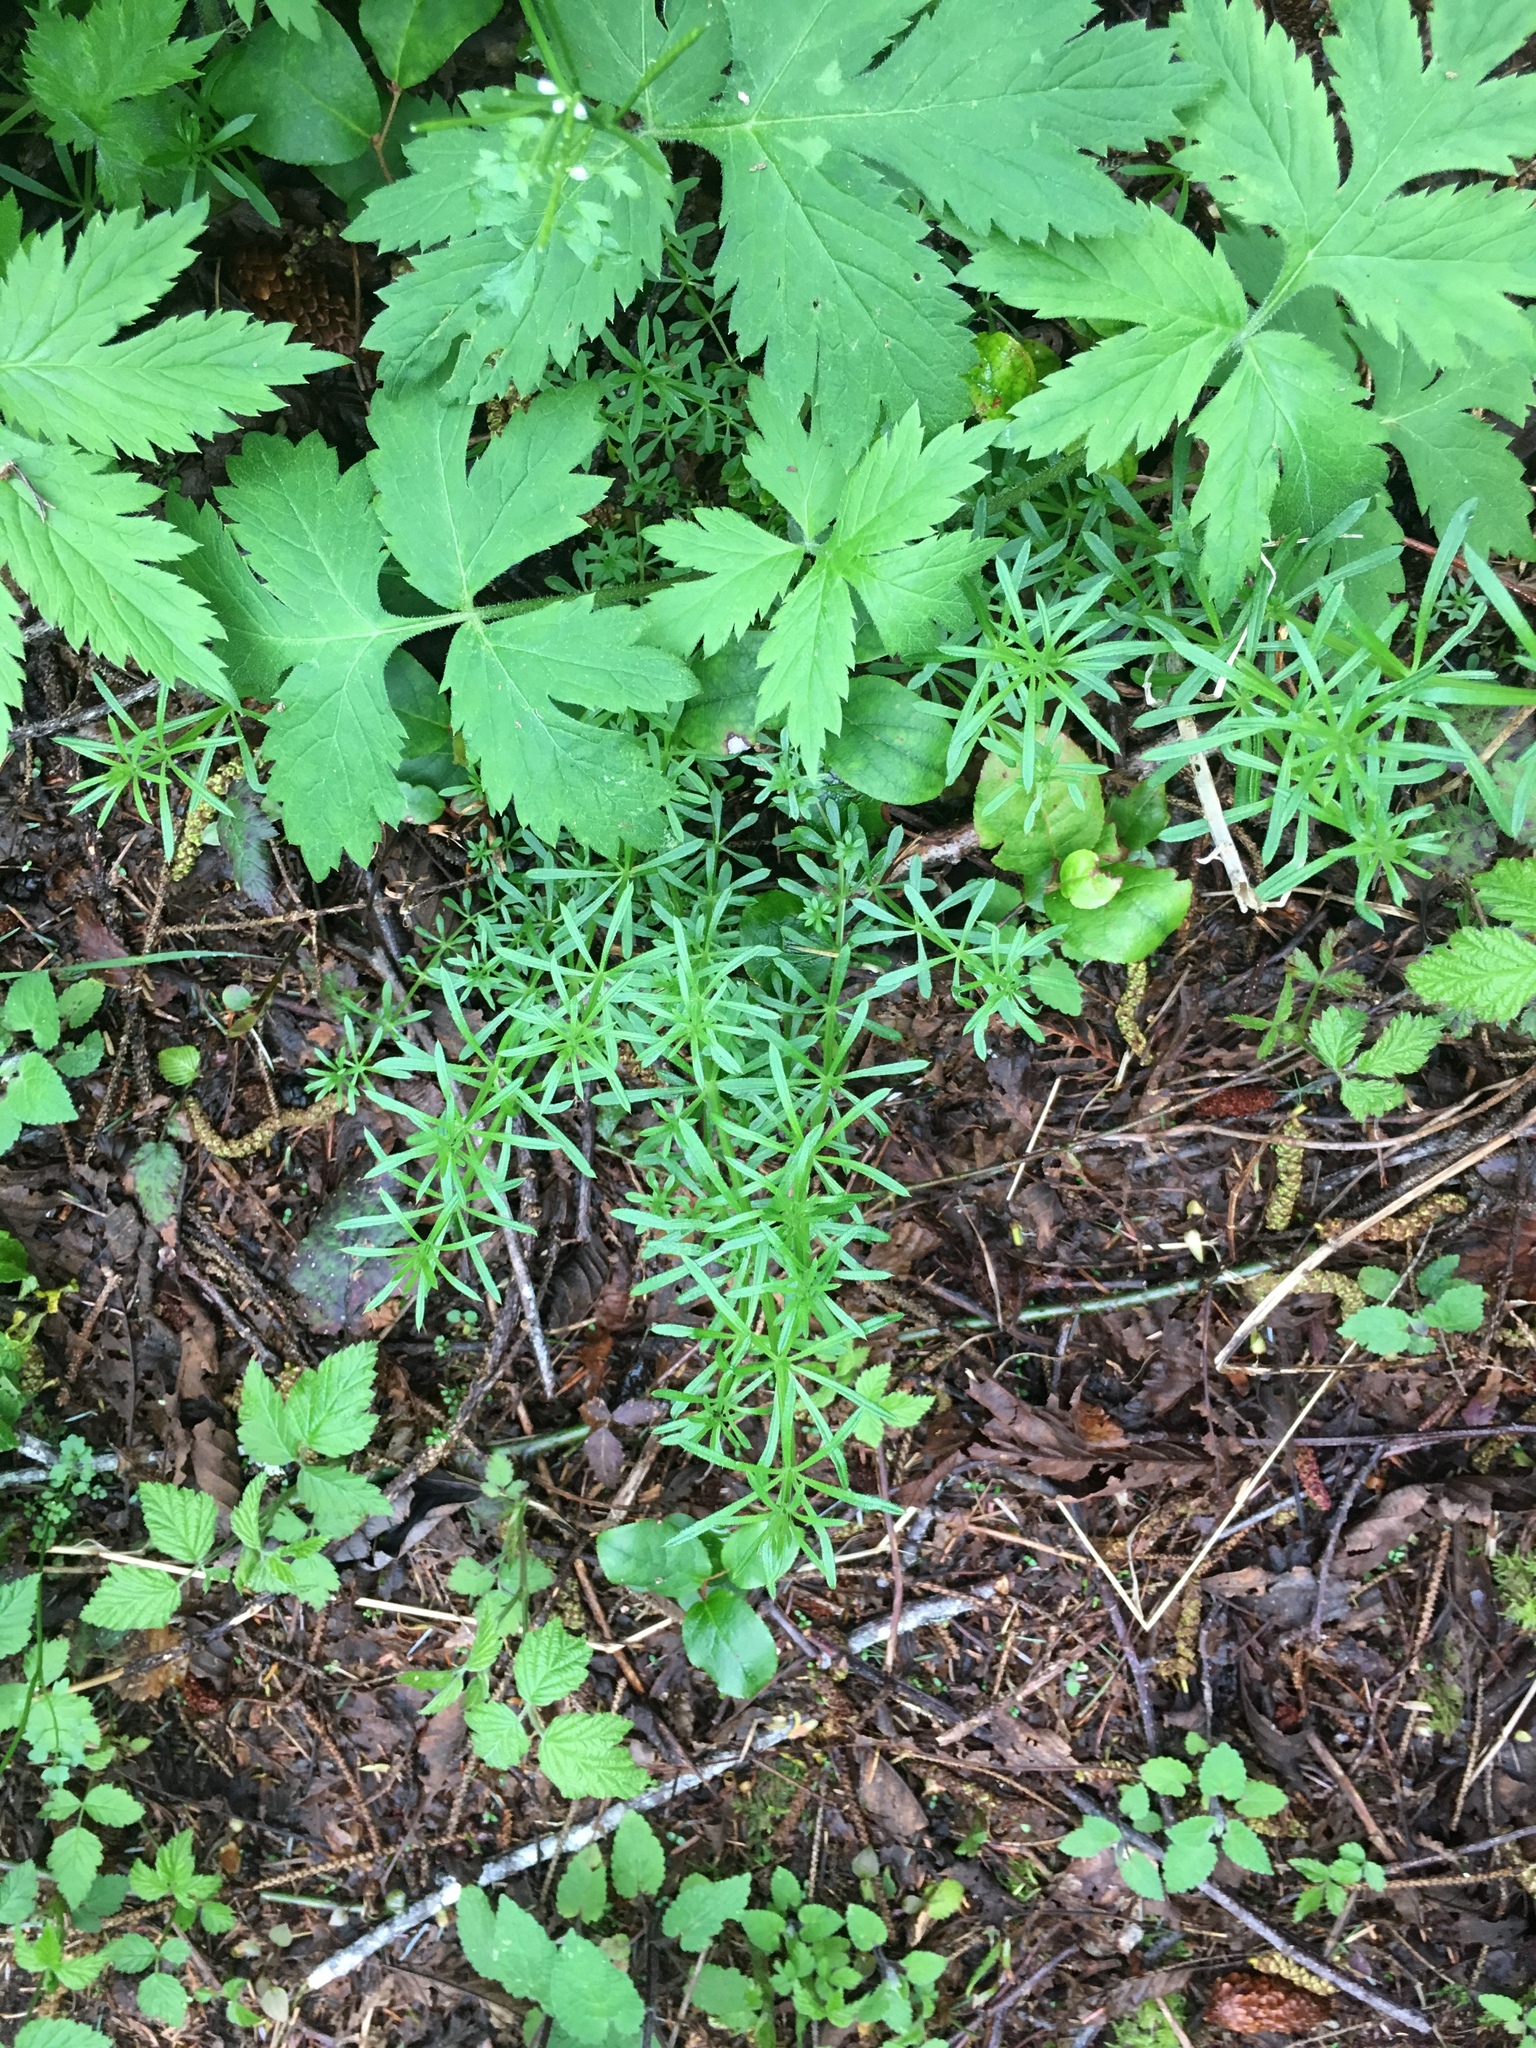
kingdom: Plantae
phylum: Tracheophyta
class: Magnoliopsida
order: Ericales
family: Ericaceae
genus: Gaultheria
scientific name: Gaultheria shallon
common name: Shallon
